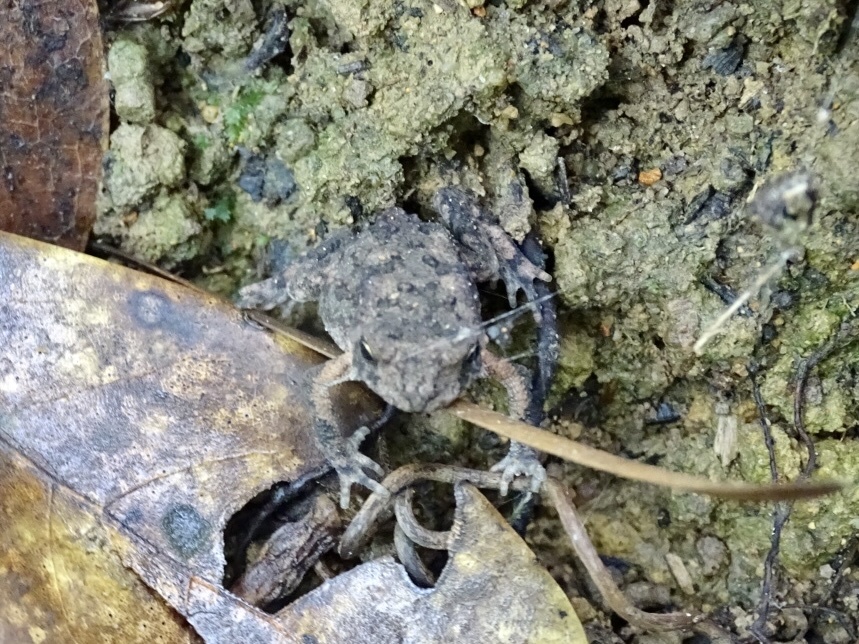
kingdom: Animalia
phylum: Chordata
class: Amphibia
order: Anura
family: Bufonidae
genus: Duttaphrynus
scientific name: Duttaphrynus melanostictus
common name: Common sunda toad
